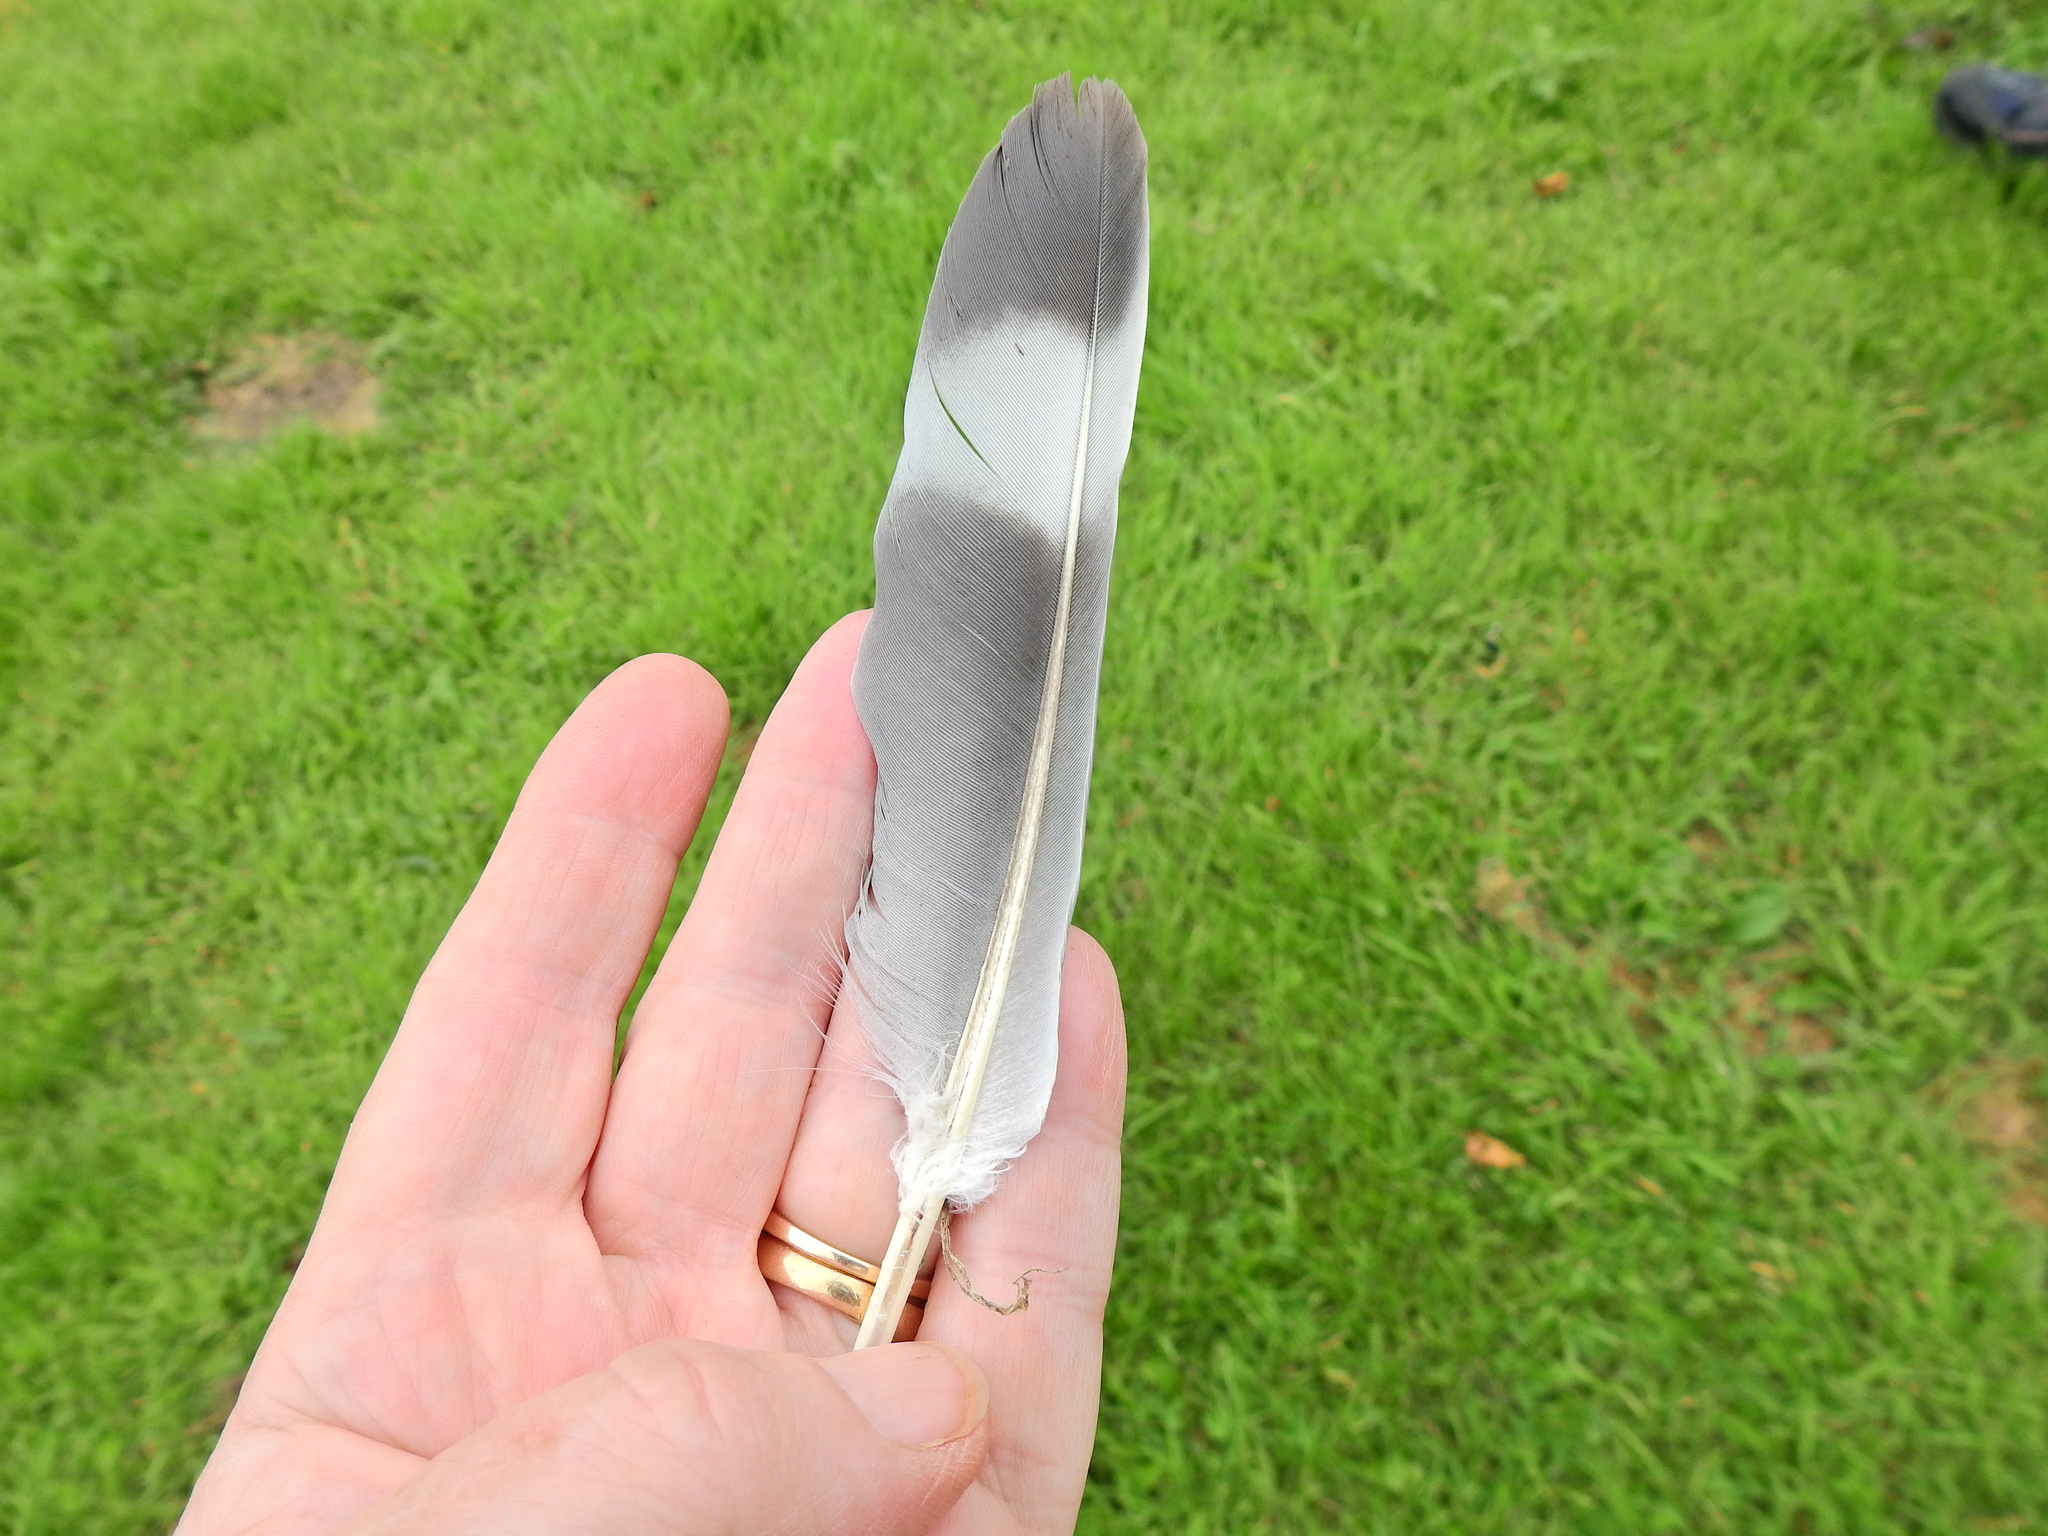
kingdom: Animalia
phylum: Chordata
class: Aves
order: Columbiformes
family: Columbidae
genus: Columba
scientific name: Columba palumbus
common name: Common wood pigeon
